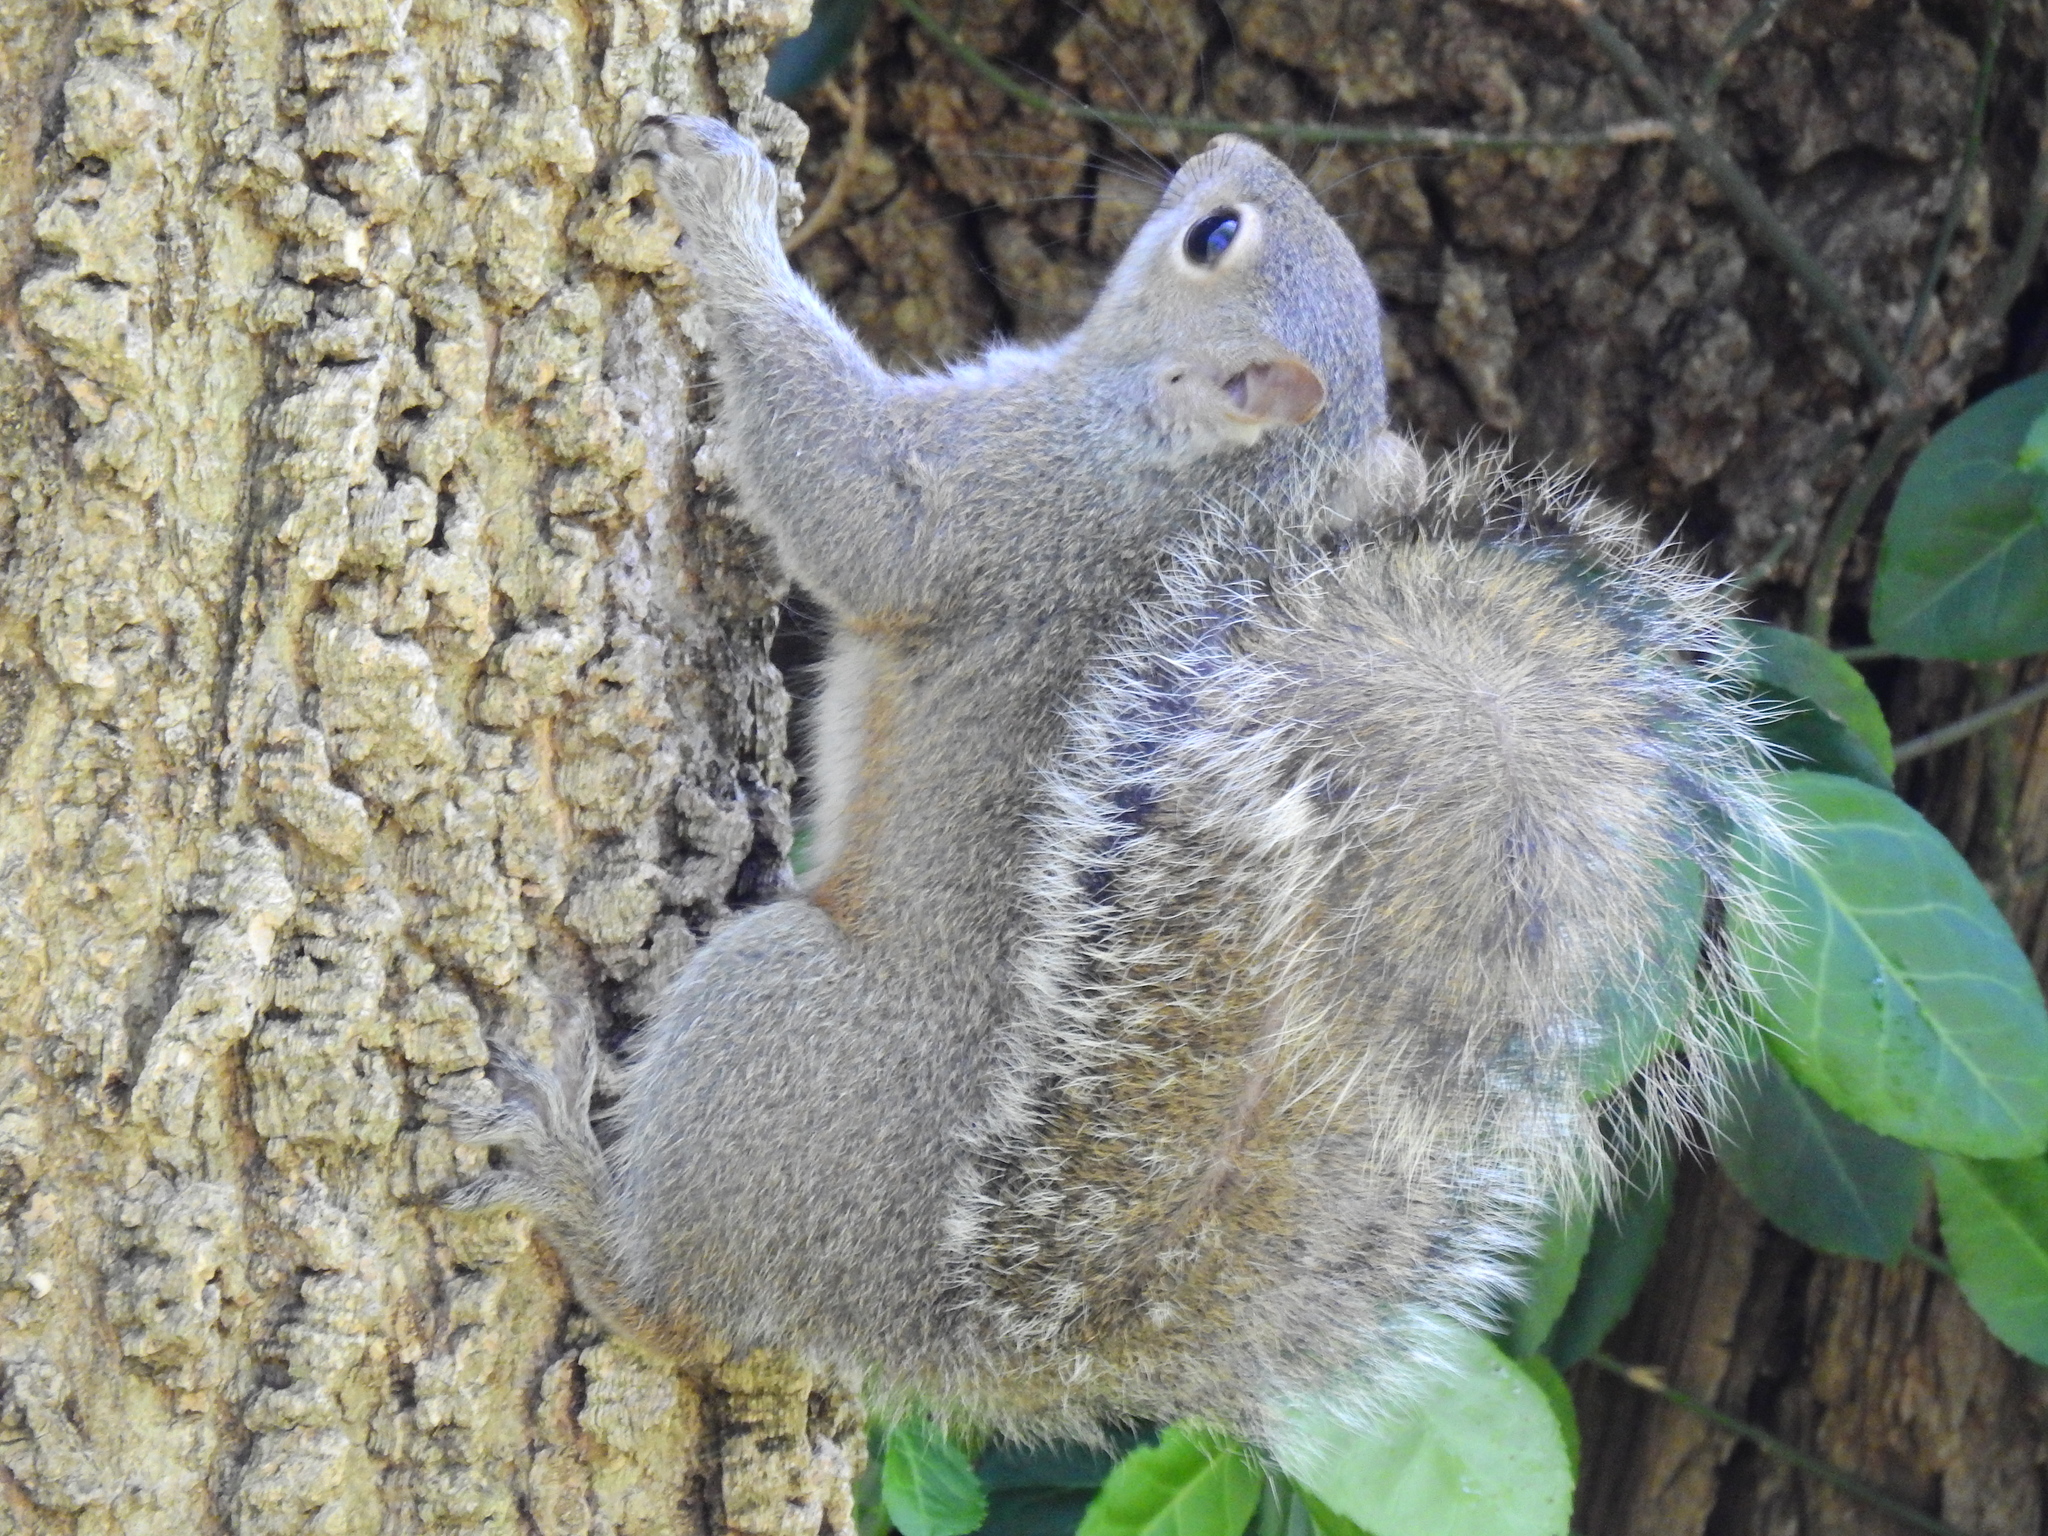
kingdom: Animalia
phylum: Chordata
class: Mammalia
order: Rodentia
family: Sciuridae
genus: Sciurus
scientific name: Sciurus carolinensis
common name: Eastern gray squirrel
